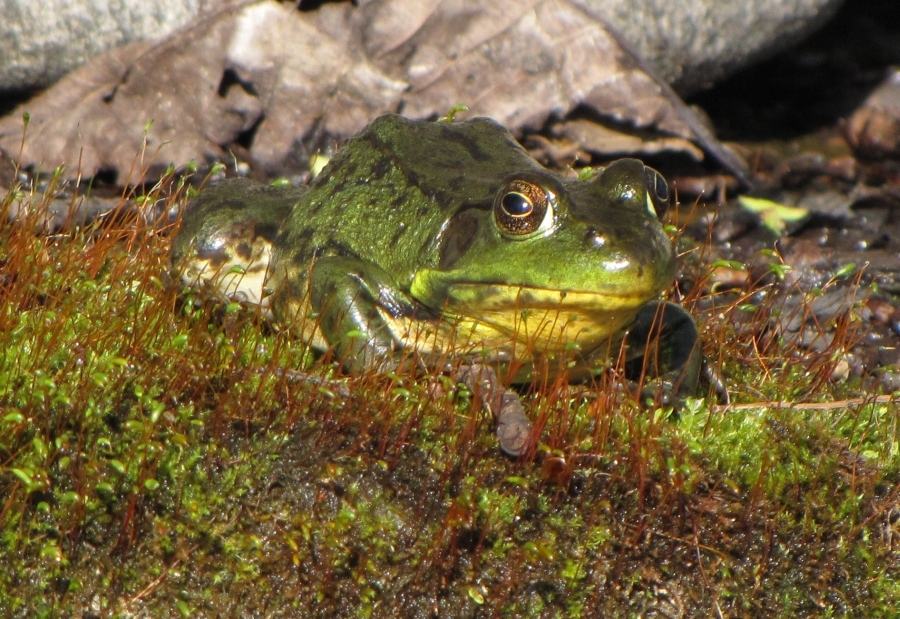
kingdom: Animalia
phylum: Chordata
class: Amphibia
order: Anura
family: Ranidae
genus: Lithobates
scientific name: Lithobates clamitans
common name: Green frog
